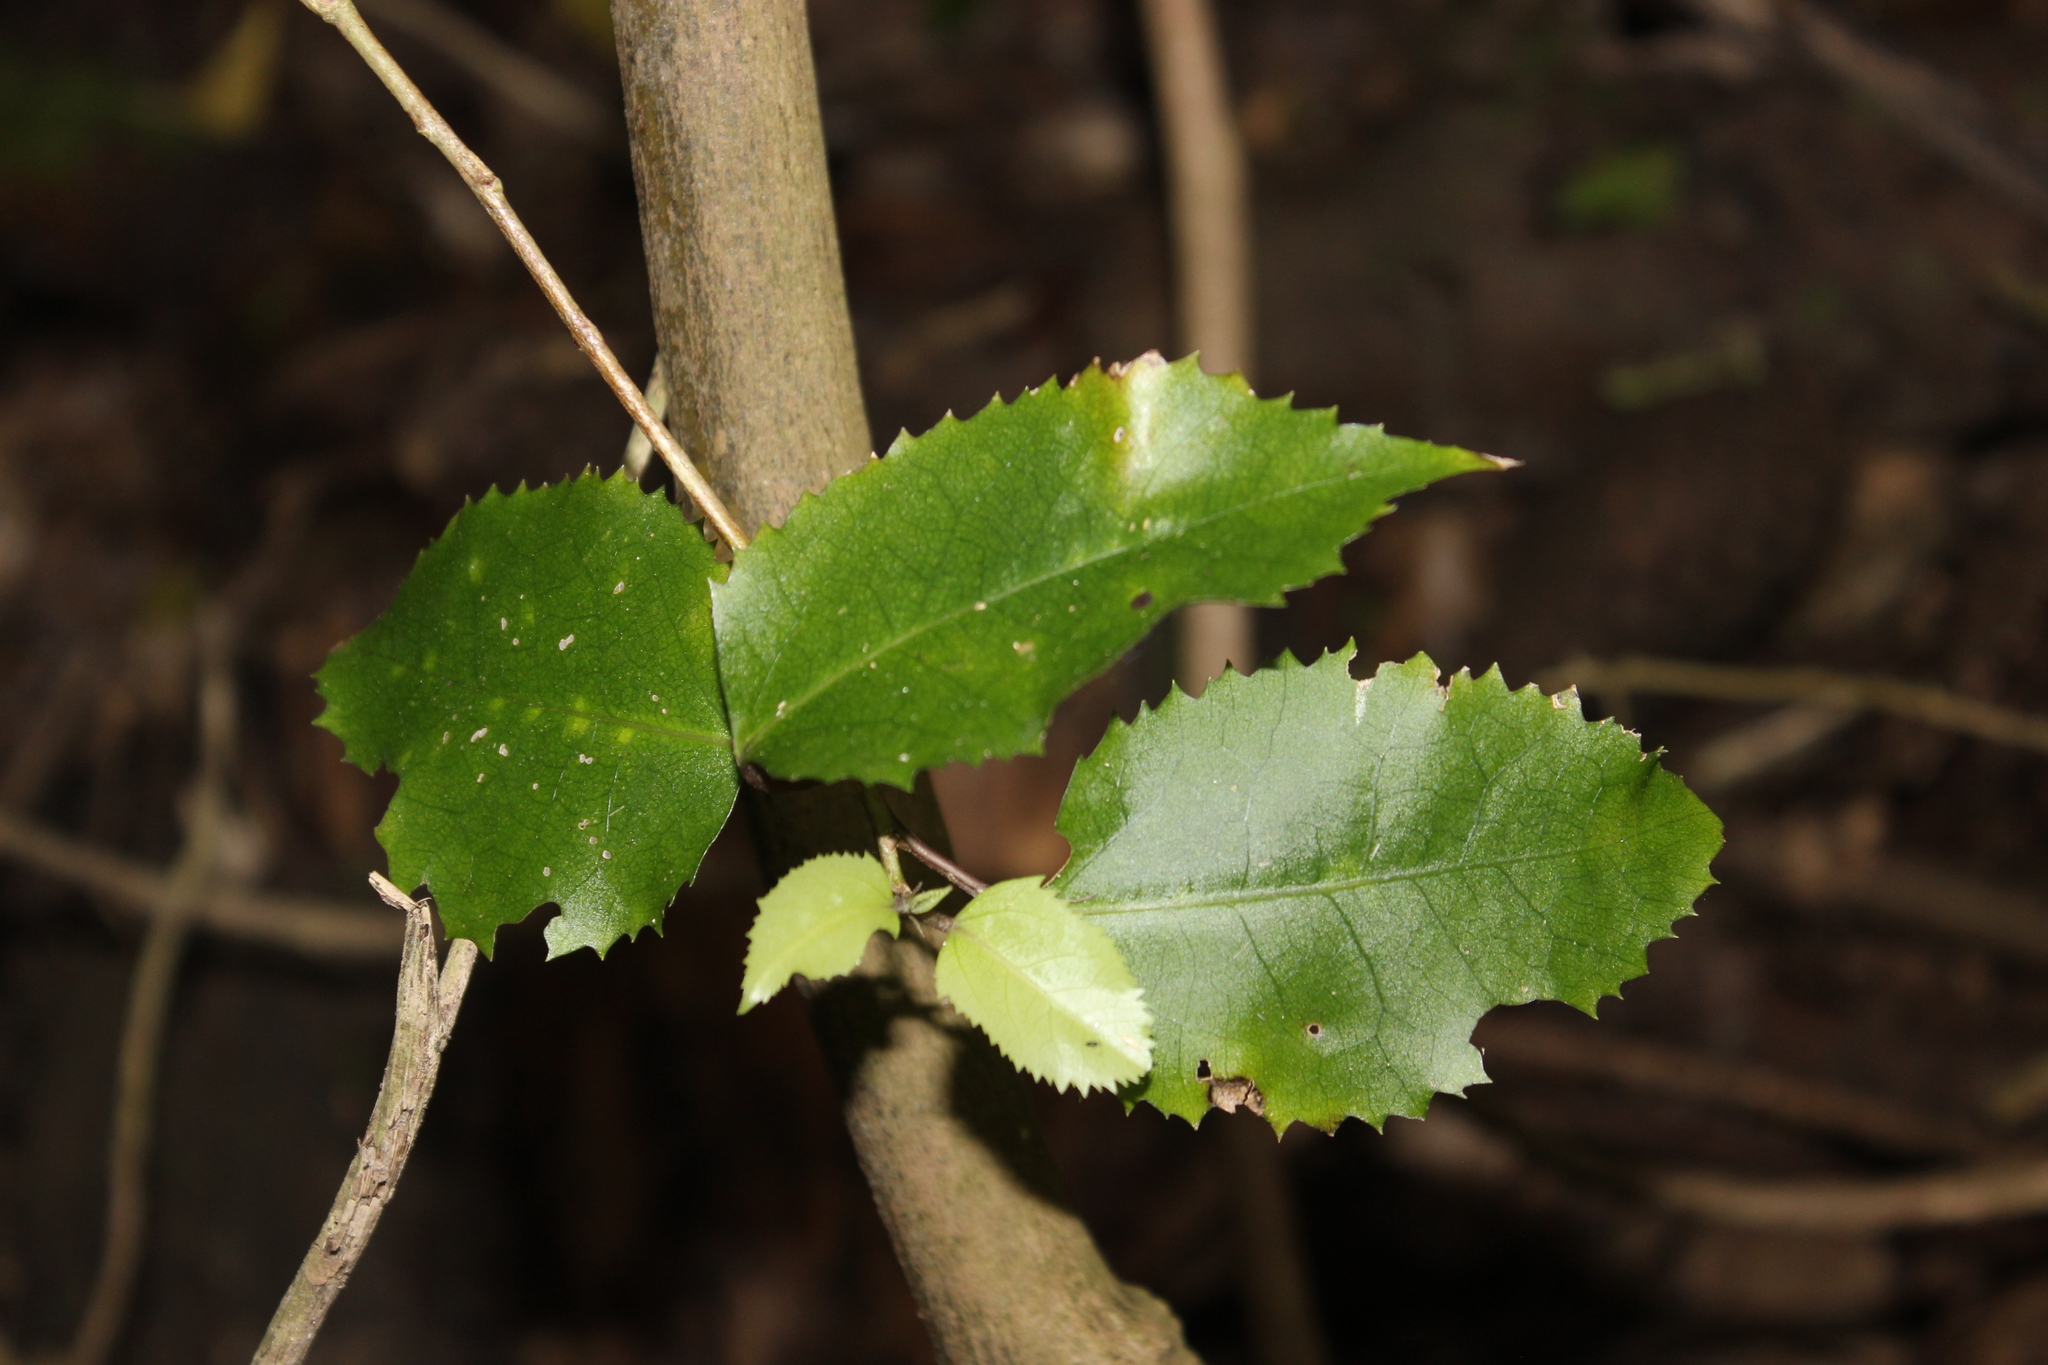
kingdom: Plantae
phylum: Tracheophyta
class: Magnoliopsida
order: Malvales
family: Malvaceae
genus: Hoheria
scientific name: Hoheria populnea
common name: Lacebark
